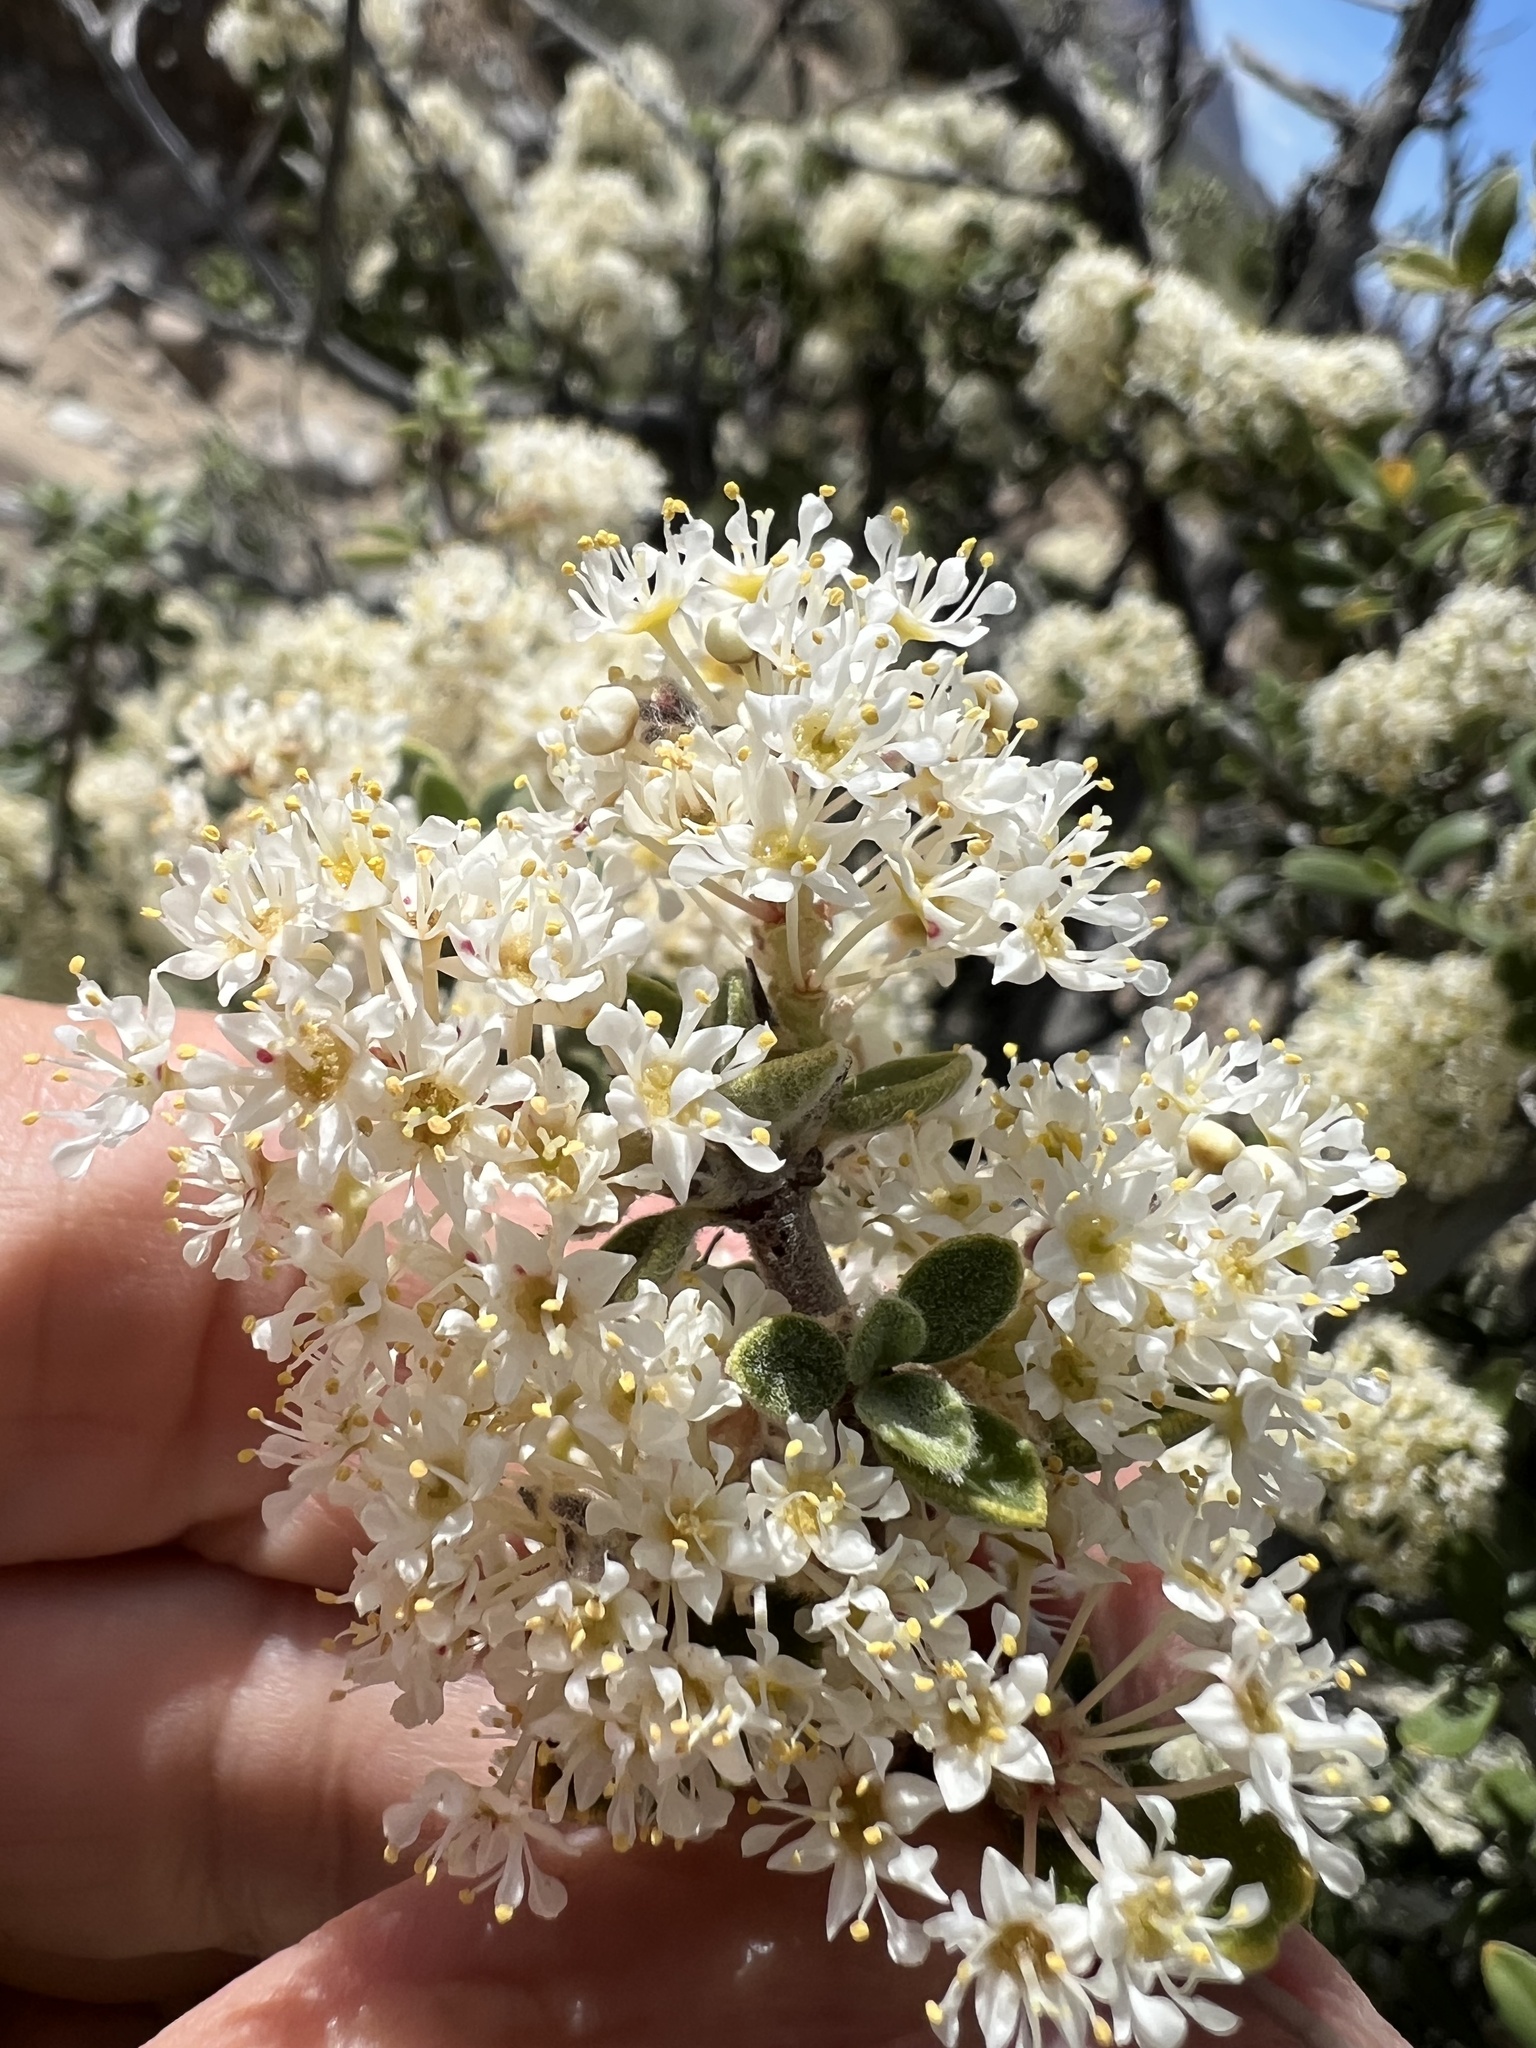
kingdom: Plantae
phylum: Tracheophyta
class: Magnoliopsida
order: Rosales
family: Rhamnaceae
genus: Ceanothus
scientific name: Ceanothus pauciflorus
